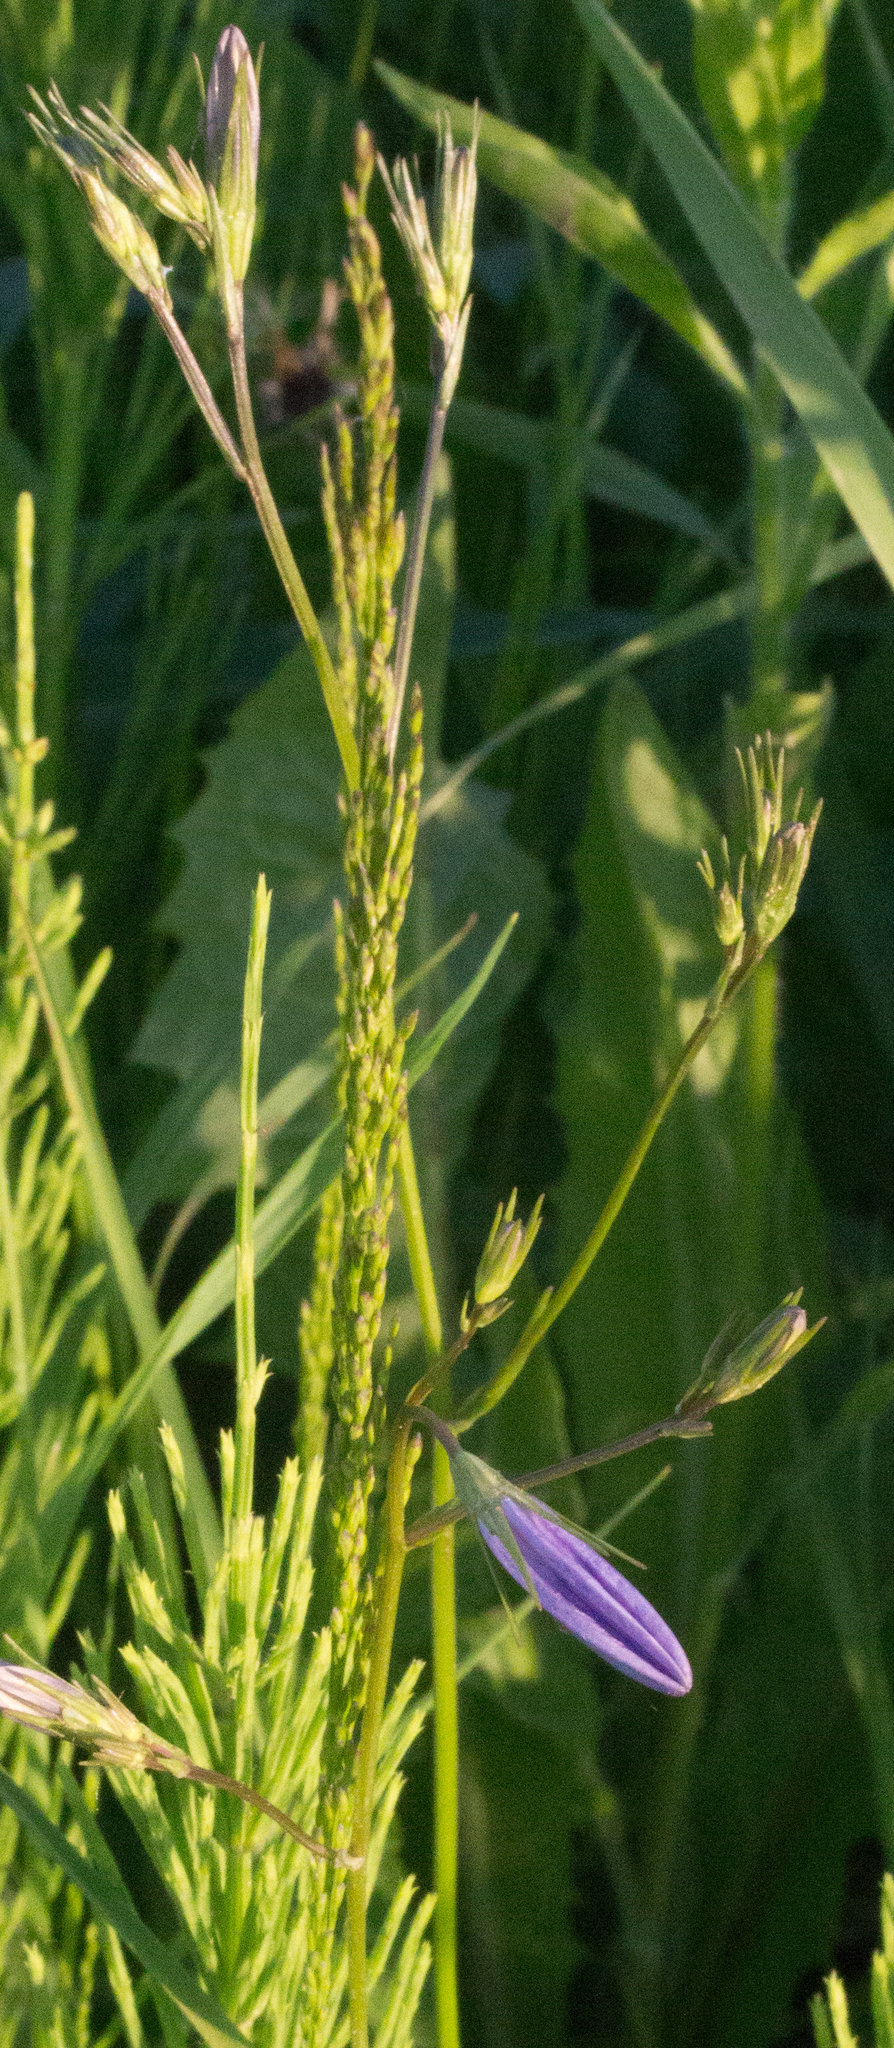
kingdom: Plantae
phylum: Tracheophyta
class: Magnoliopsida
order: Asterales
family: Campanulaceae
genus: Campanula
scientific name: Campanula patula
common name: Spreading bellflower
